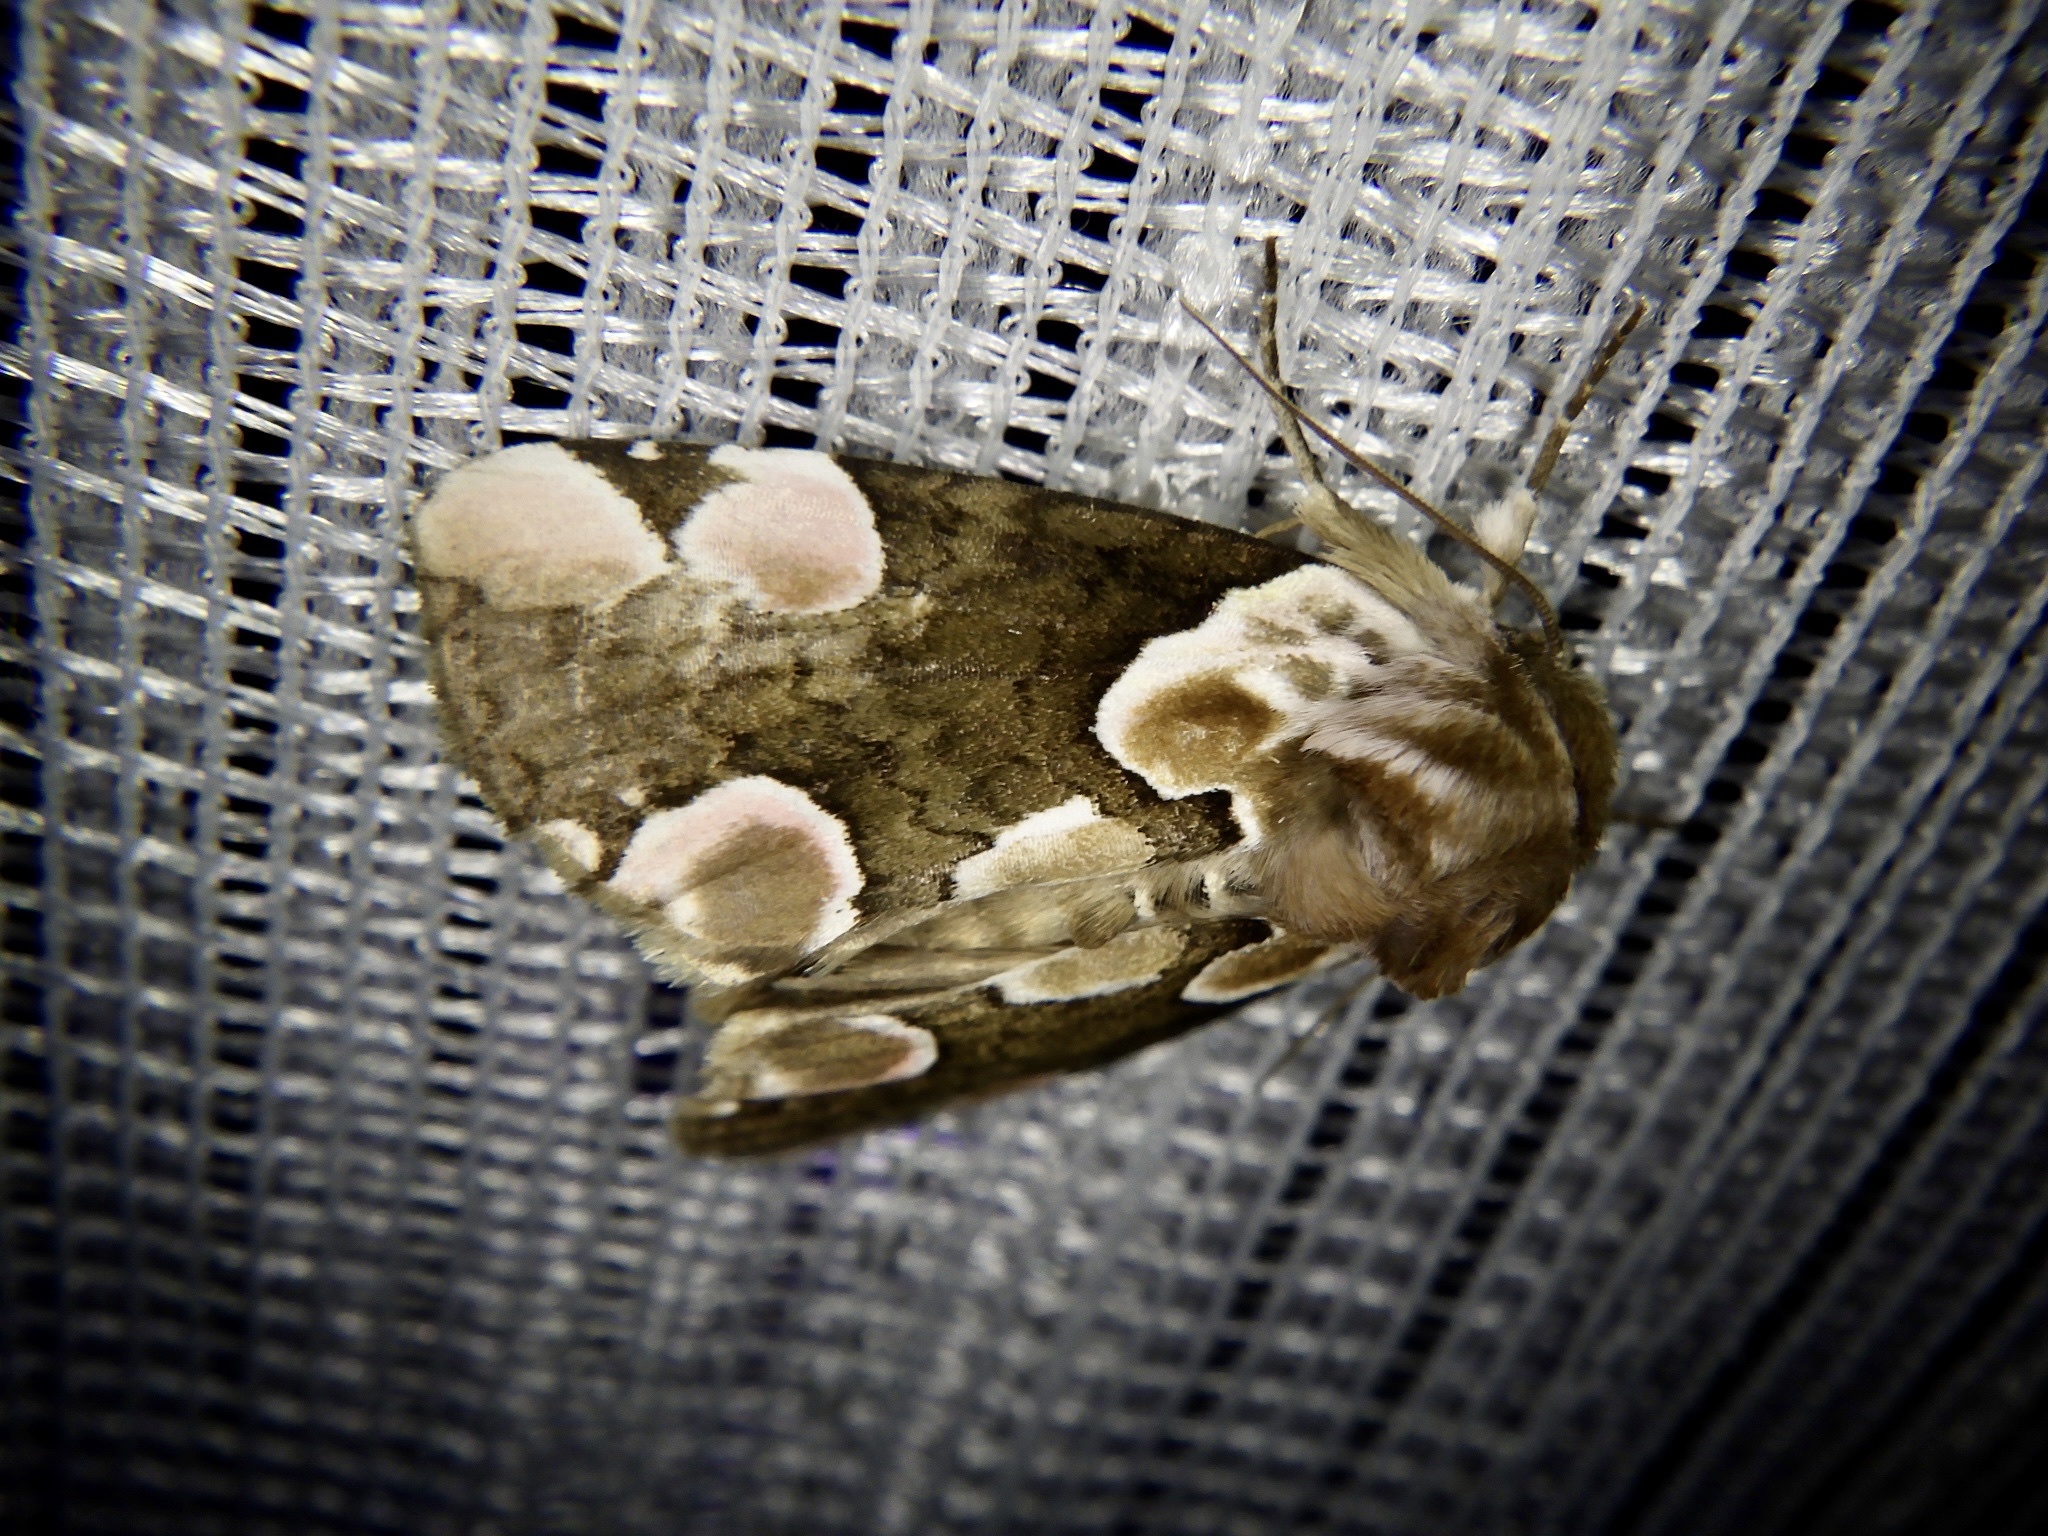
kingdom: Animalia
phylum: Arthropoda
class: Insecta
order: Lepidoptera
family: Drepanidae
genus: Thyatira
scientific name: Thyatira batis
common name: Peach blossom
